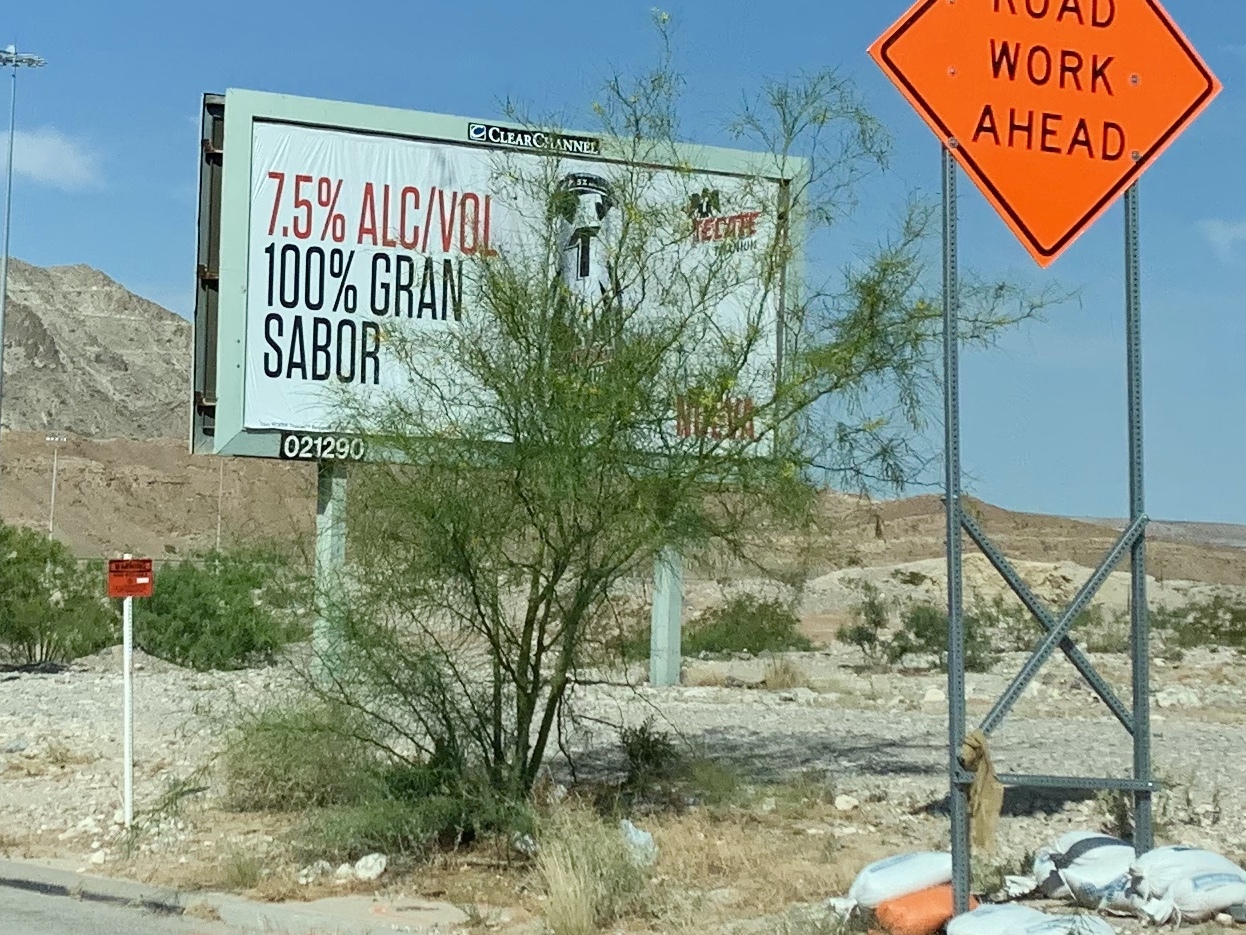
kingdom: Plantae
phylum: Tracheophyta
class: Magnoliopsida
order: Fabales
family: Fabaceae
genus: Parkinsonia
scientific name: Parkinsonia aculeata
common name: Jerusalem thorn
